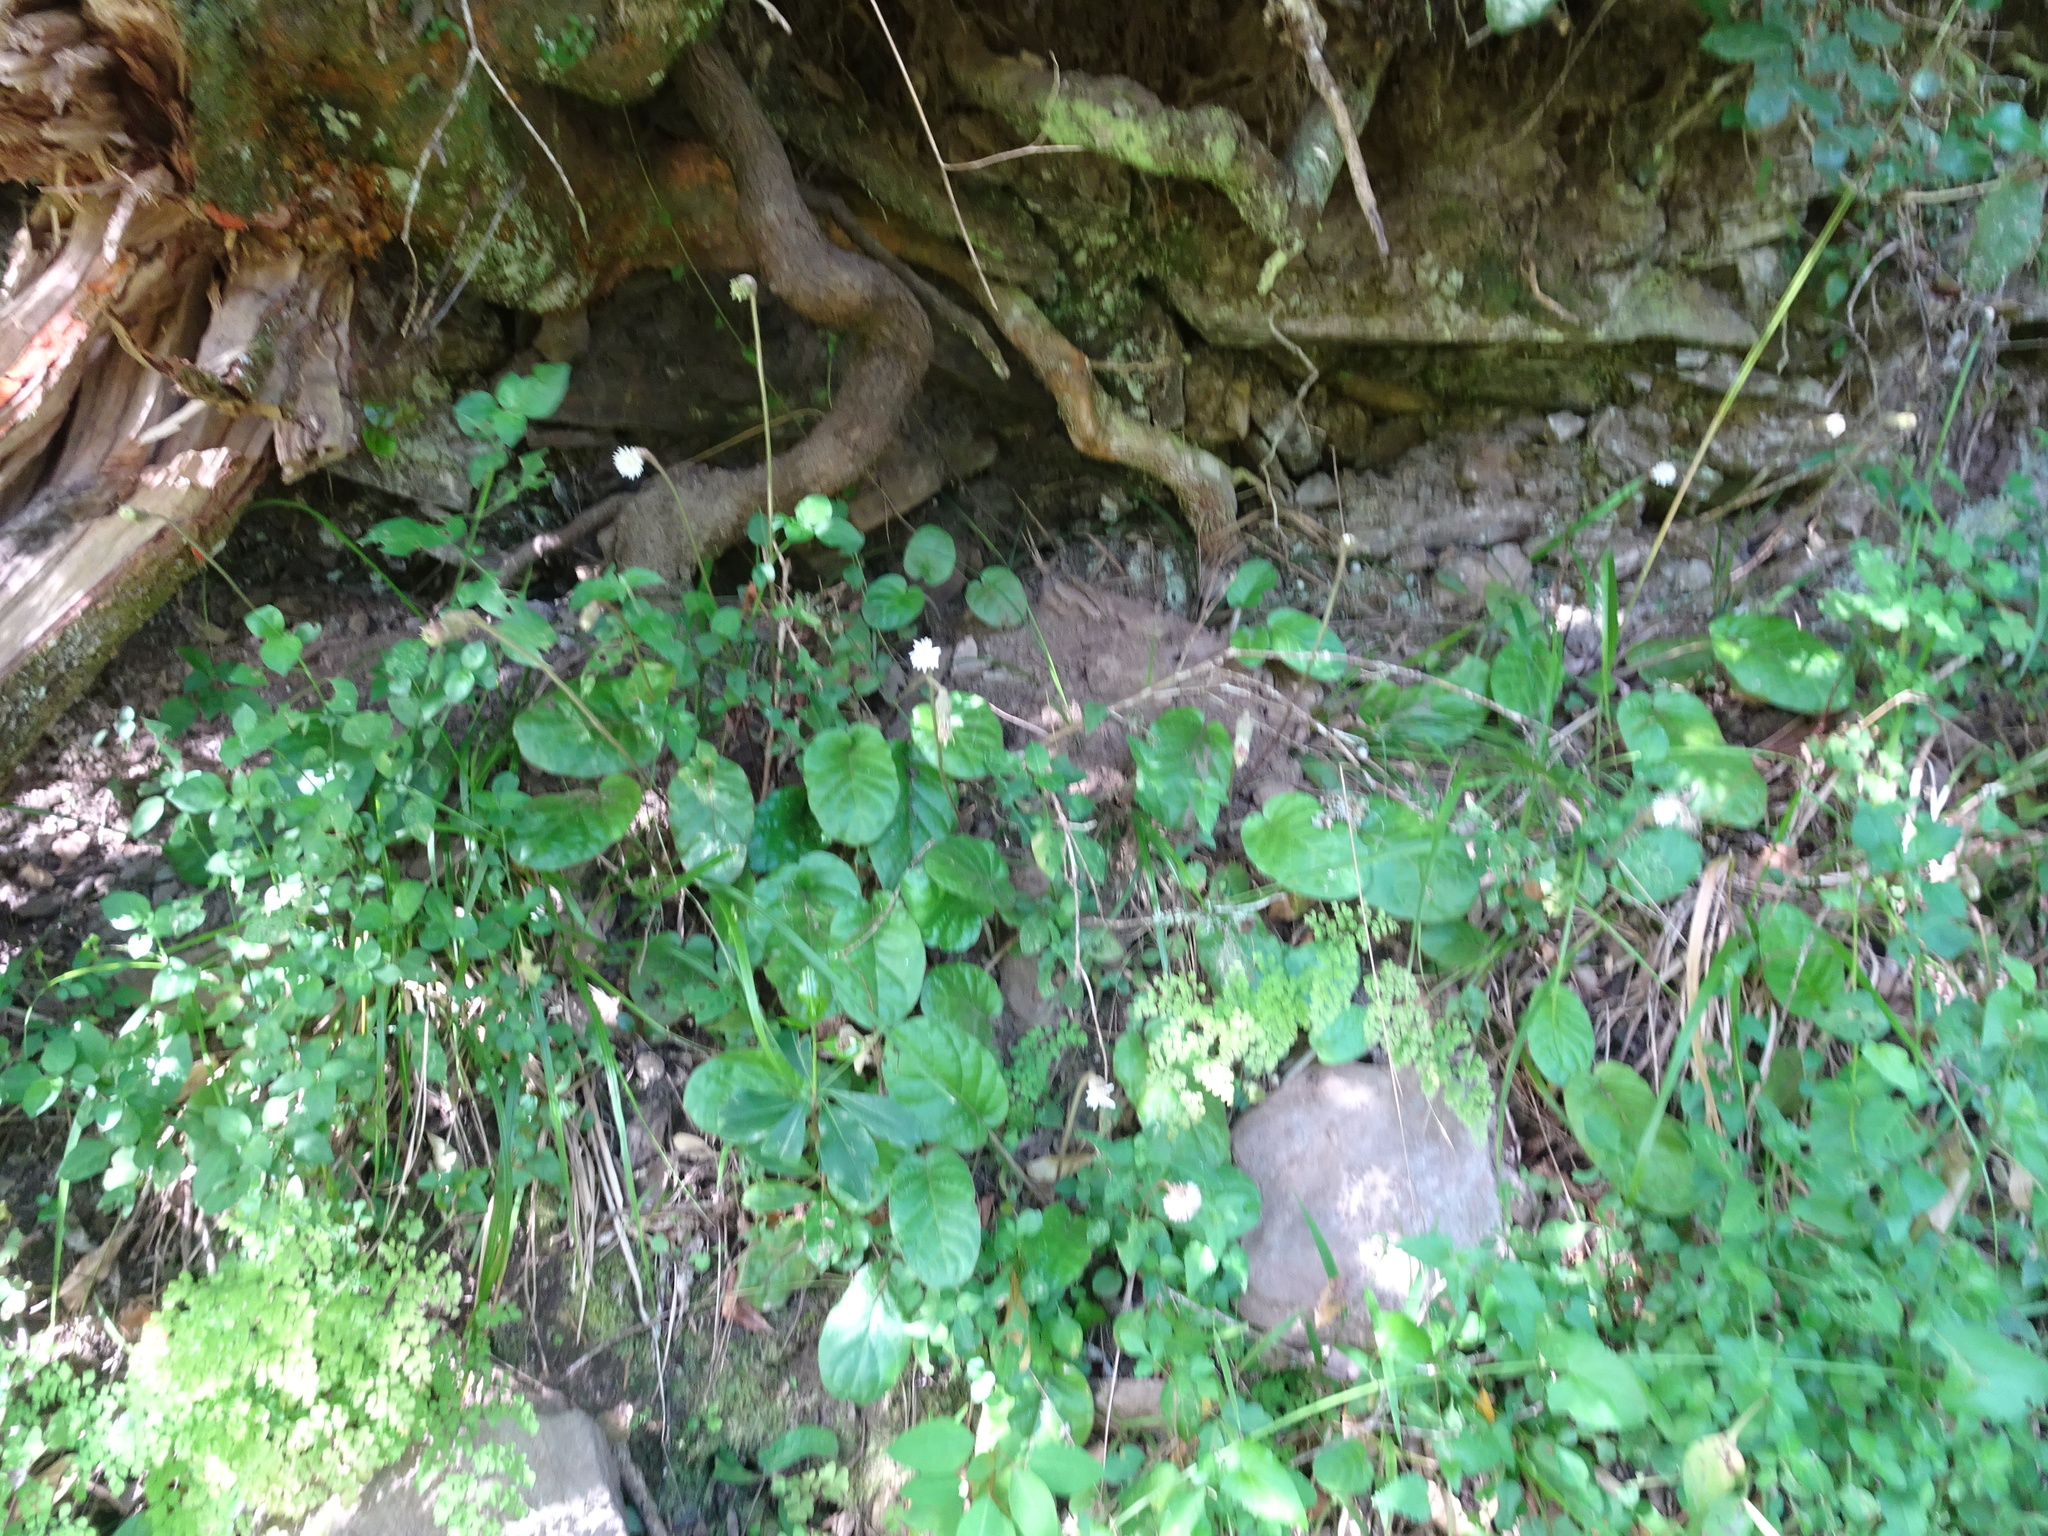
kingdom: Plantae
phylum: Tracheophyta
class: Magnoliopsida
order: Asterales
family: Asteraceae
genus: Piloselloides
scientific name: Piloselloides cordata
